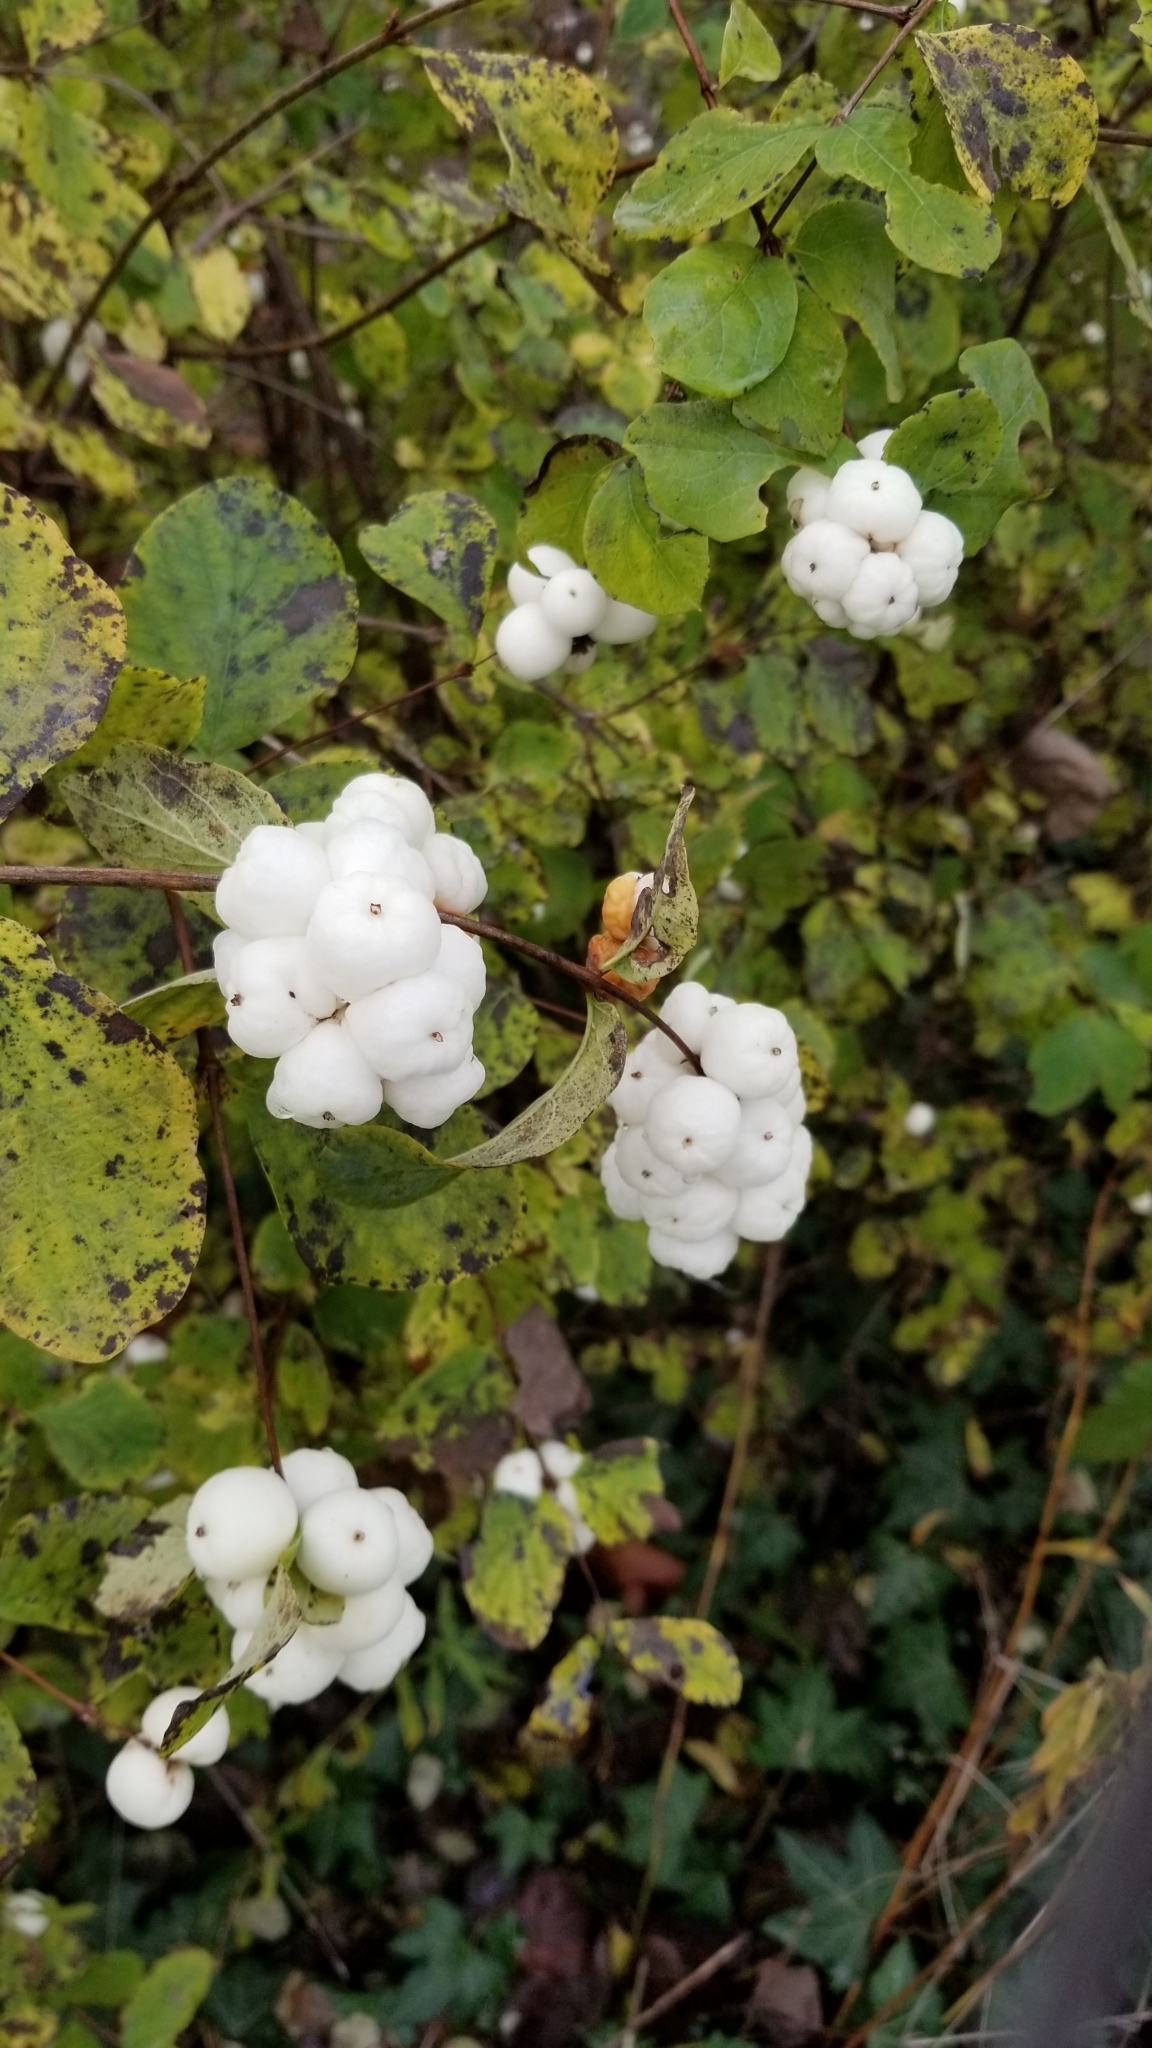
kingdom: Plantae
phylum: Tracheophyta
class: Magnoliopsida
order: Dipsacales
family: Caprifoliaceae
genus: Symphoricarpos
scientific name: Symphoricarpos albus
